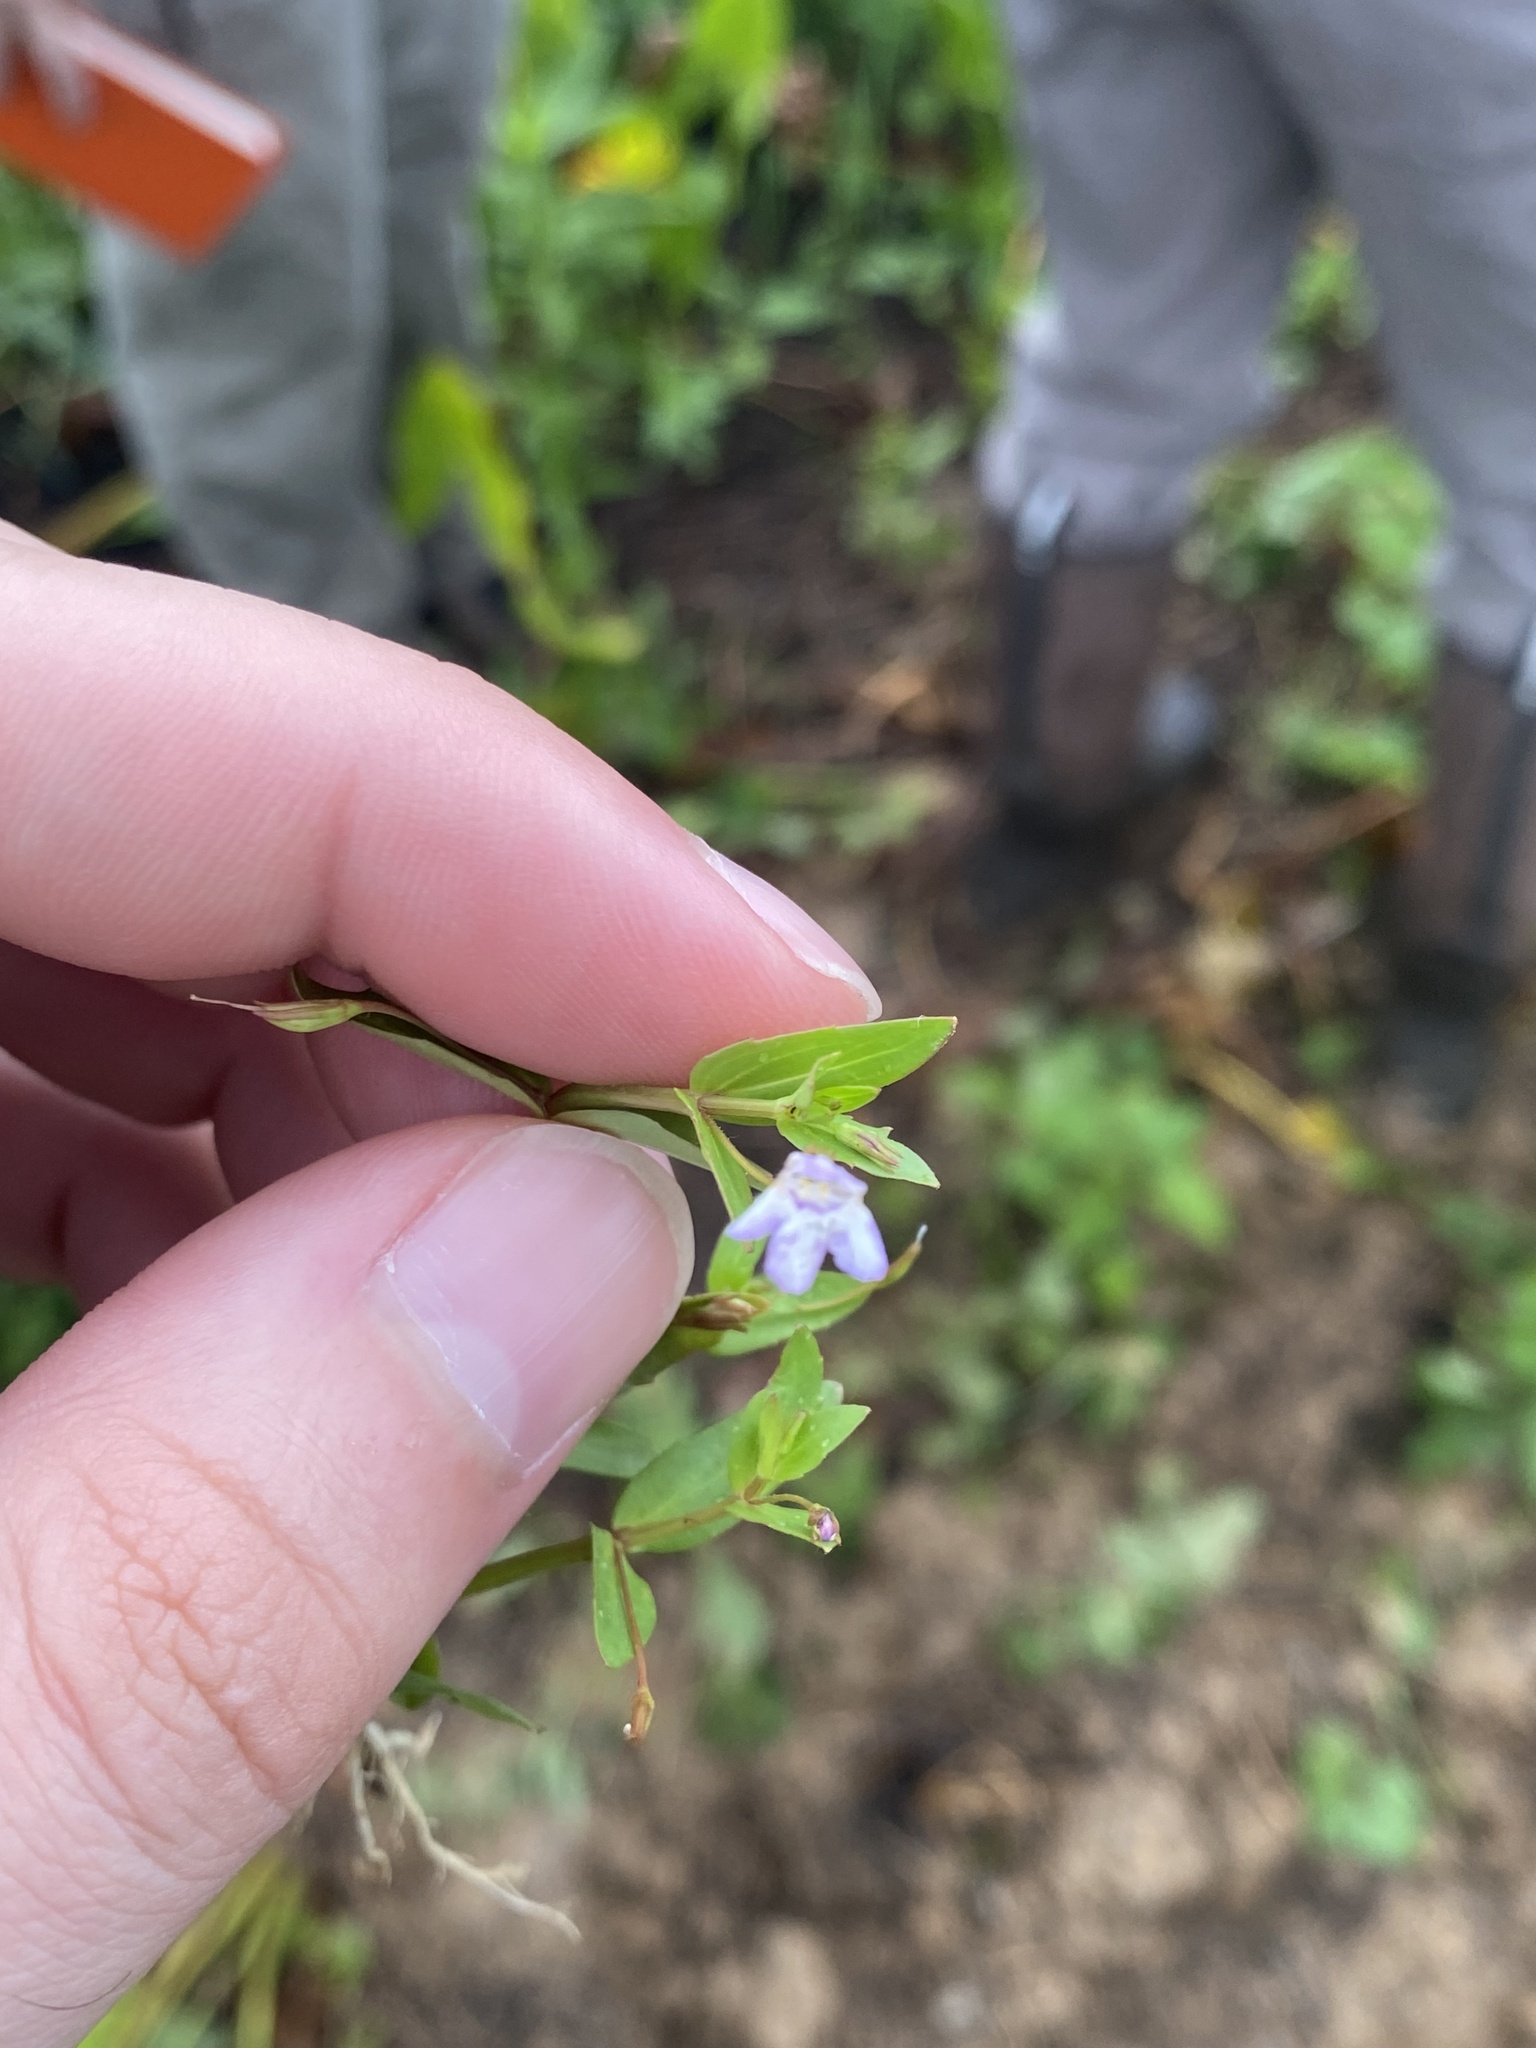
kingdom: Plantae
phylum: Tracheophyta
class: Magnoliopsida
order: Lamiales
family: Linderniaceae
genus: Lindernia
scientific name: Lindernia dubia
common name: Annual false pimpernel
